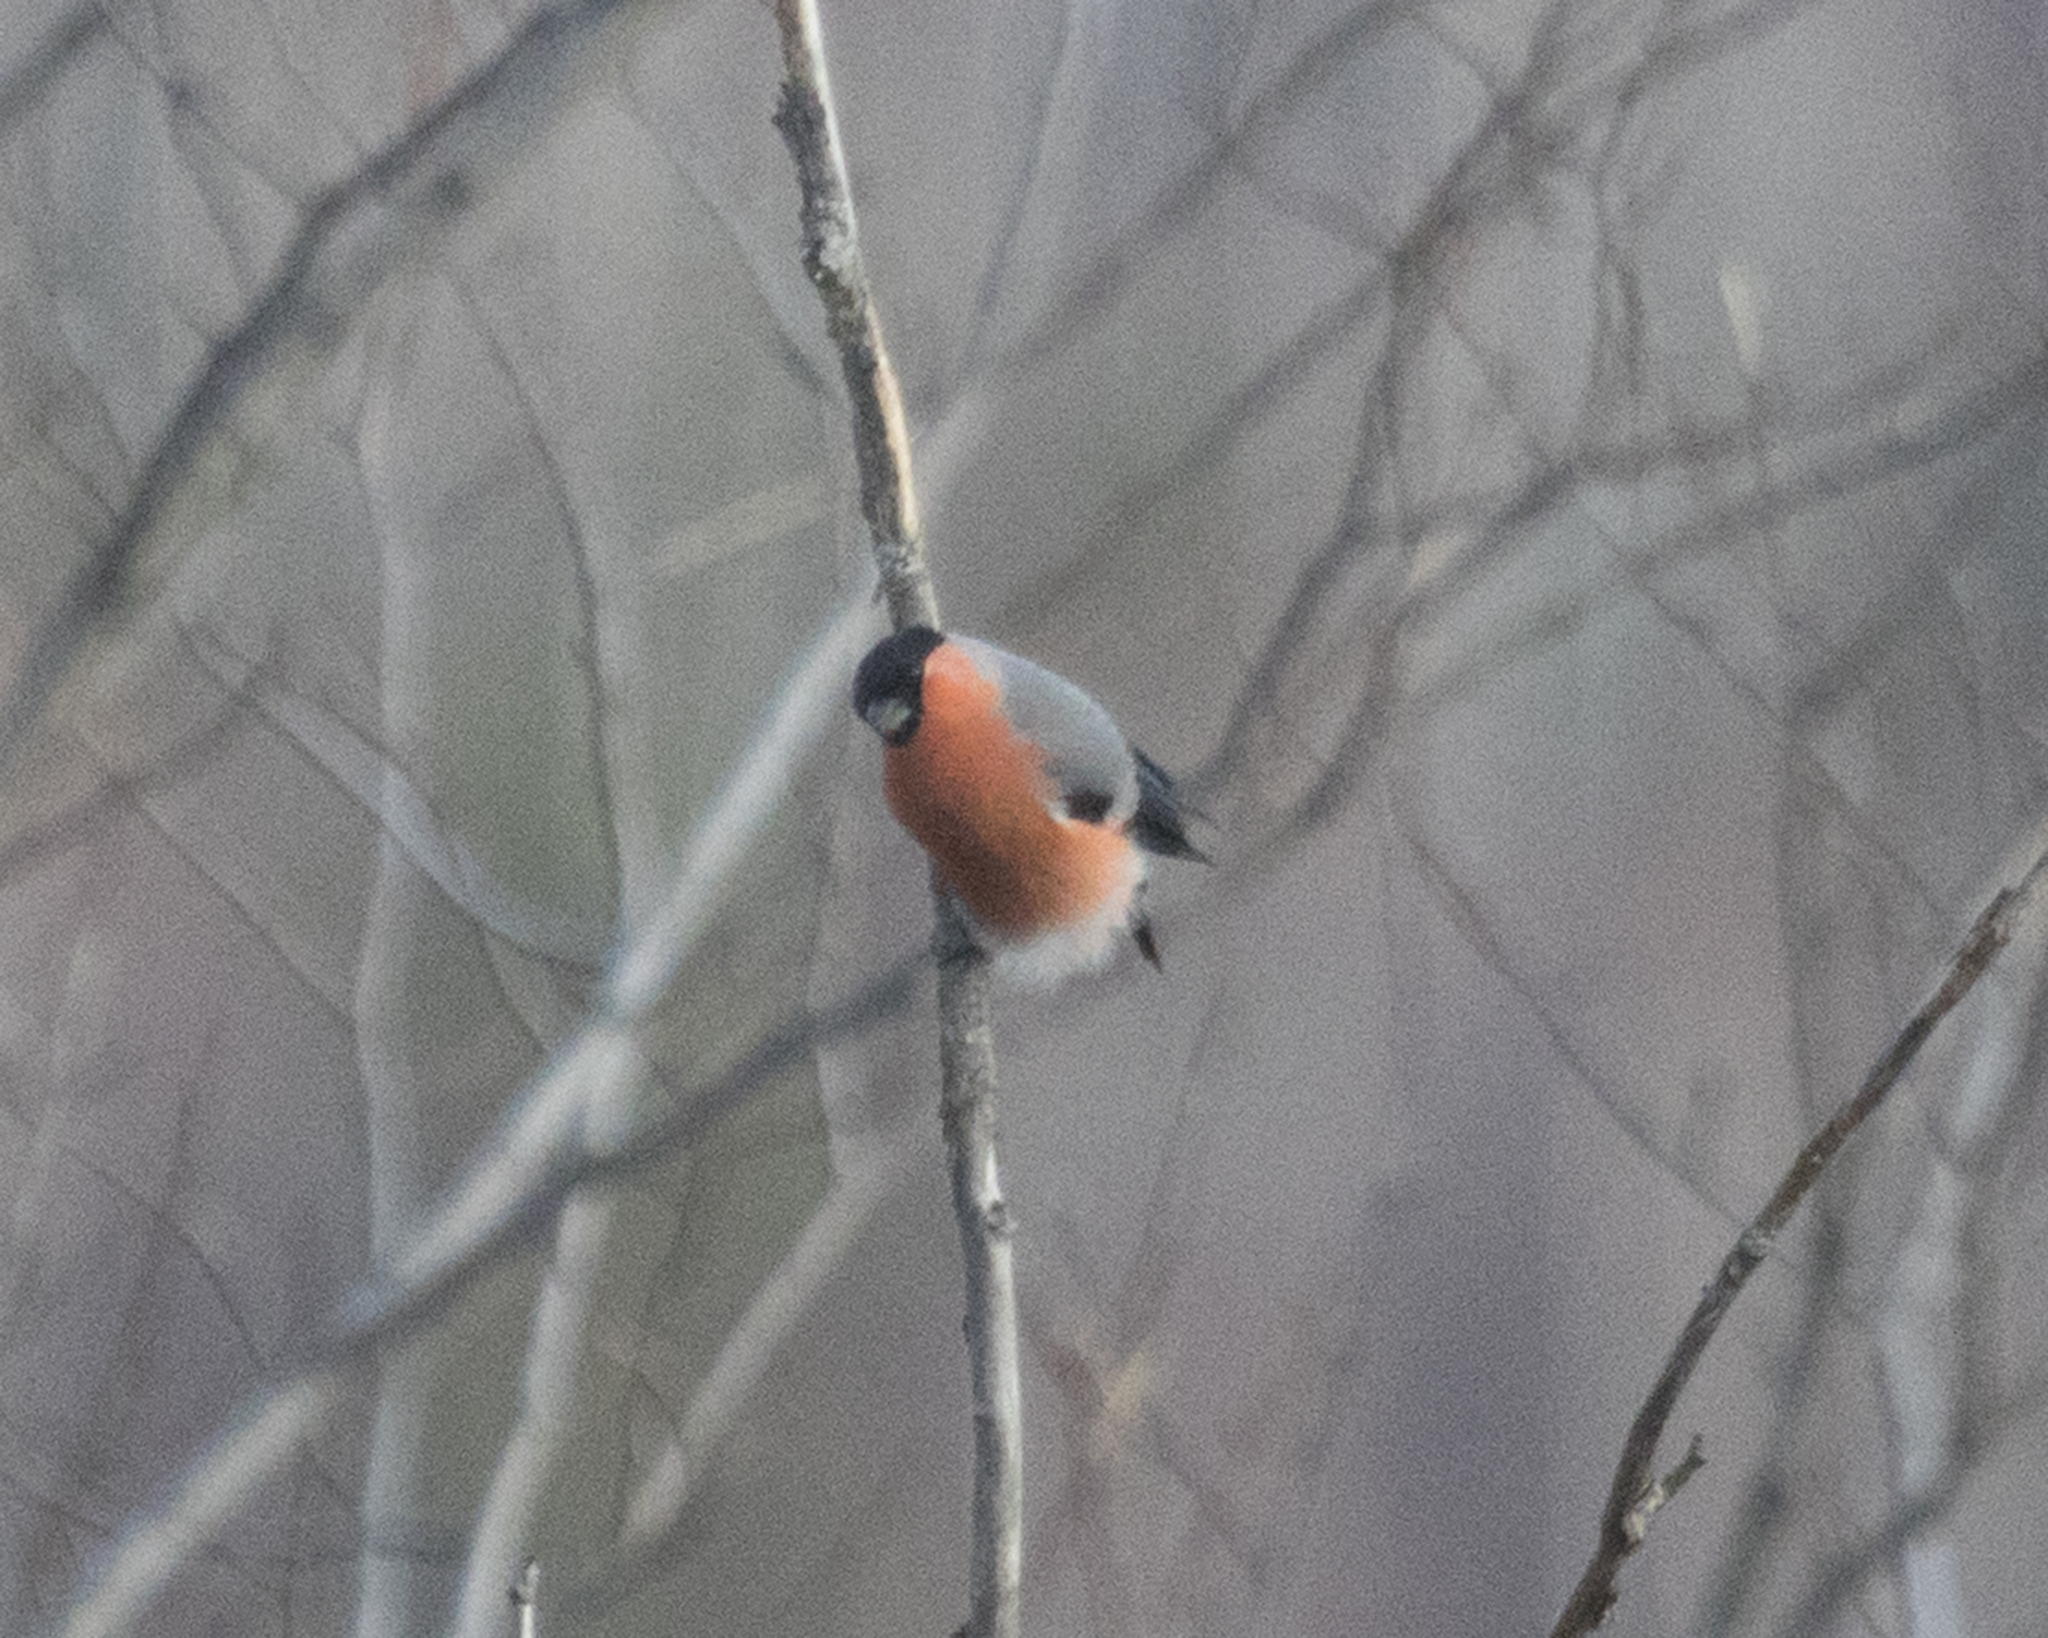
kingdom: Animalia
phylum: Chordata
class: Aves
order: Passeriformes
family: Fringillidae
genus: Pyrrhula
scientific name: Pyrrhula pyrrhula
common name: Eurasian bullfinch
